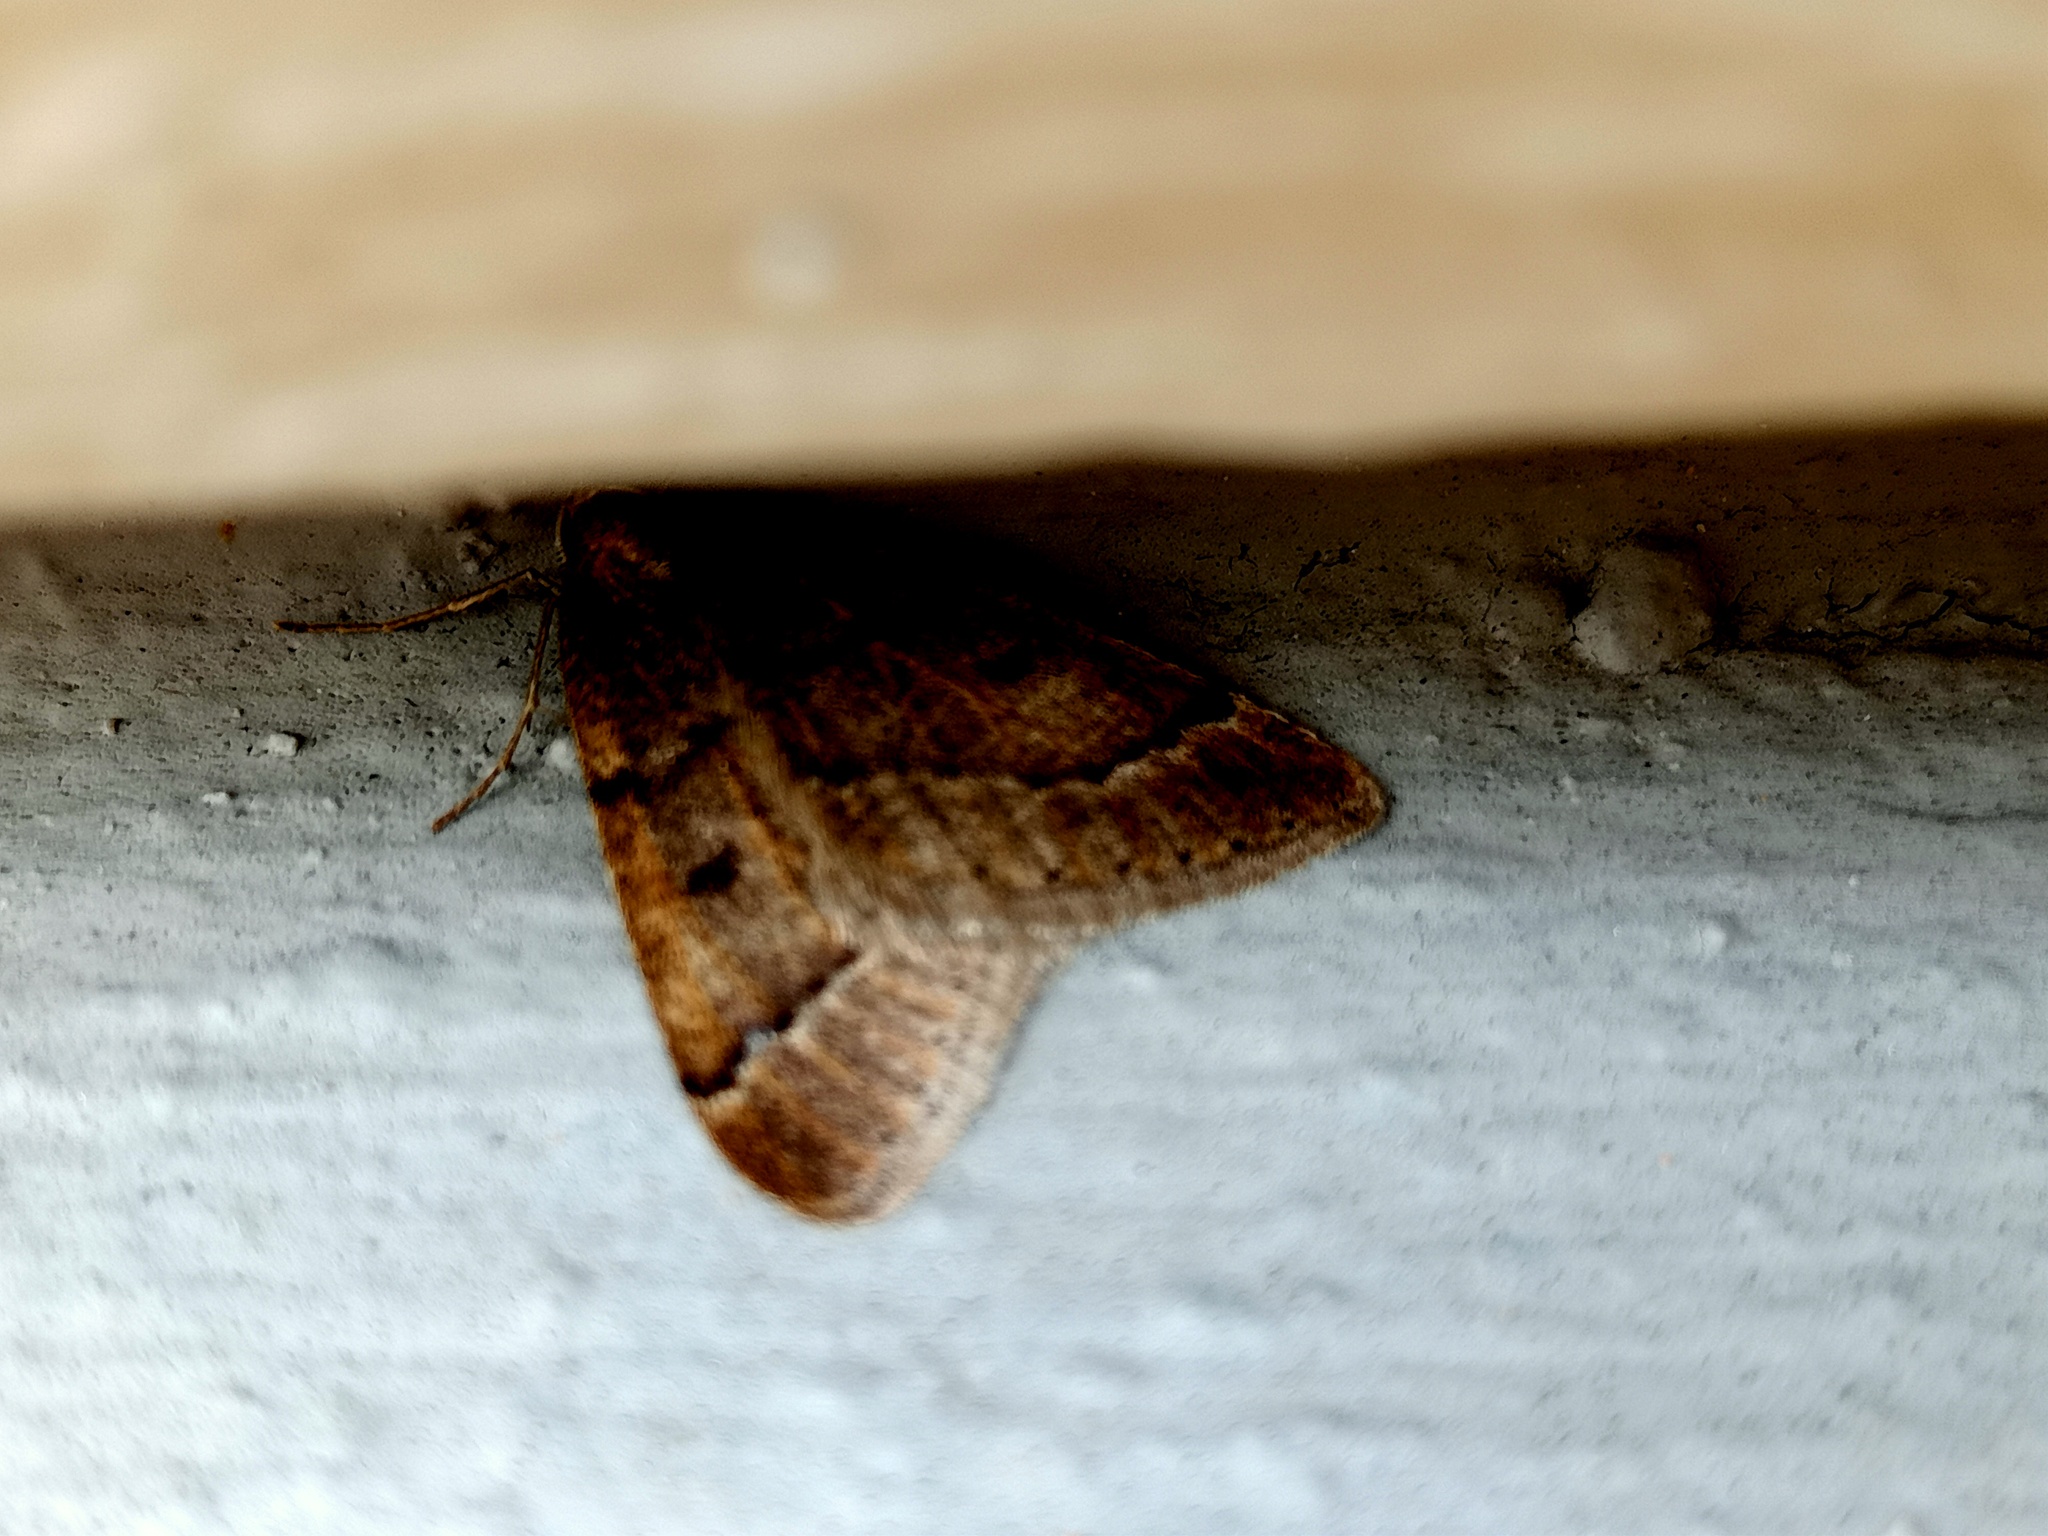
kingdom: Animalia
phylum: Arthropoda
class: Insecta
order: Lepidoptera
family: Geometridae
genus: Theria
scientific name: Theria rupicapraria
